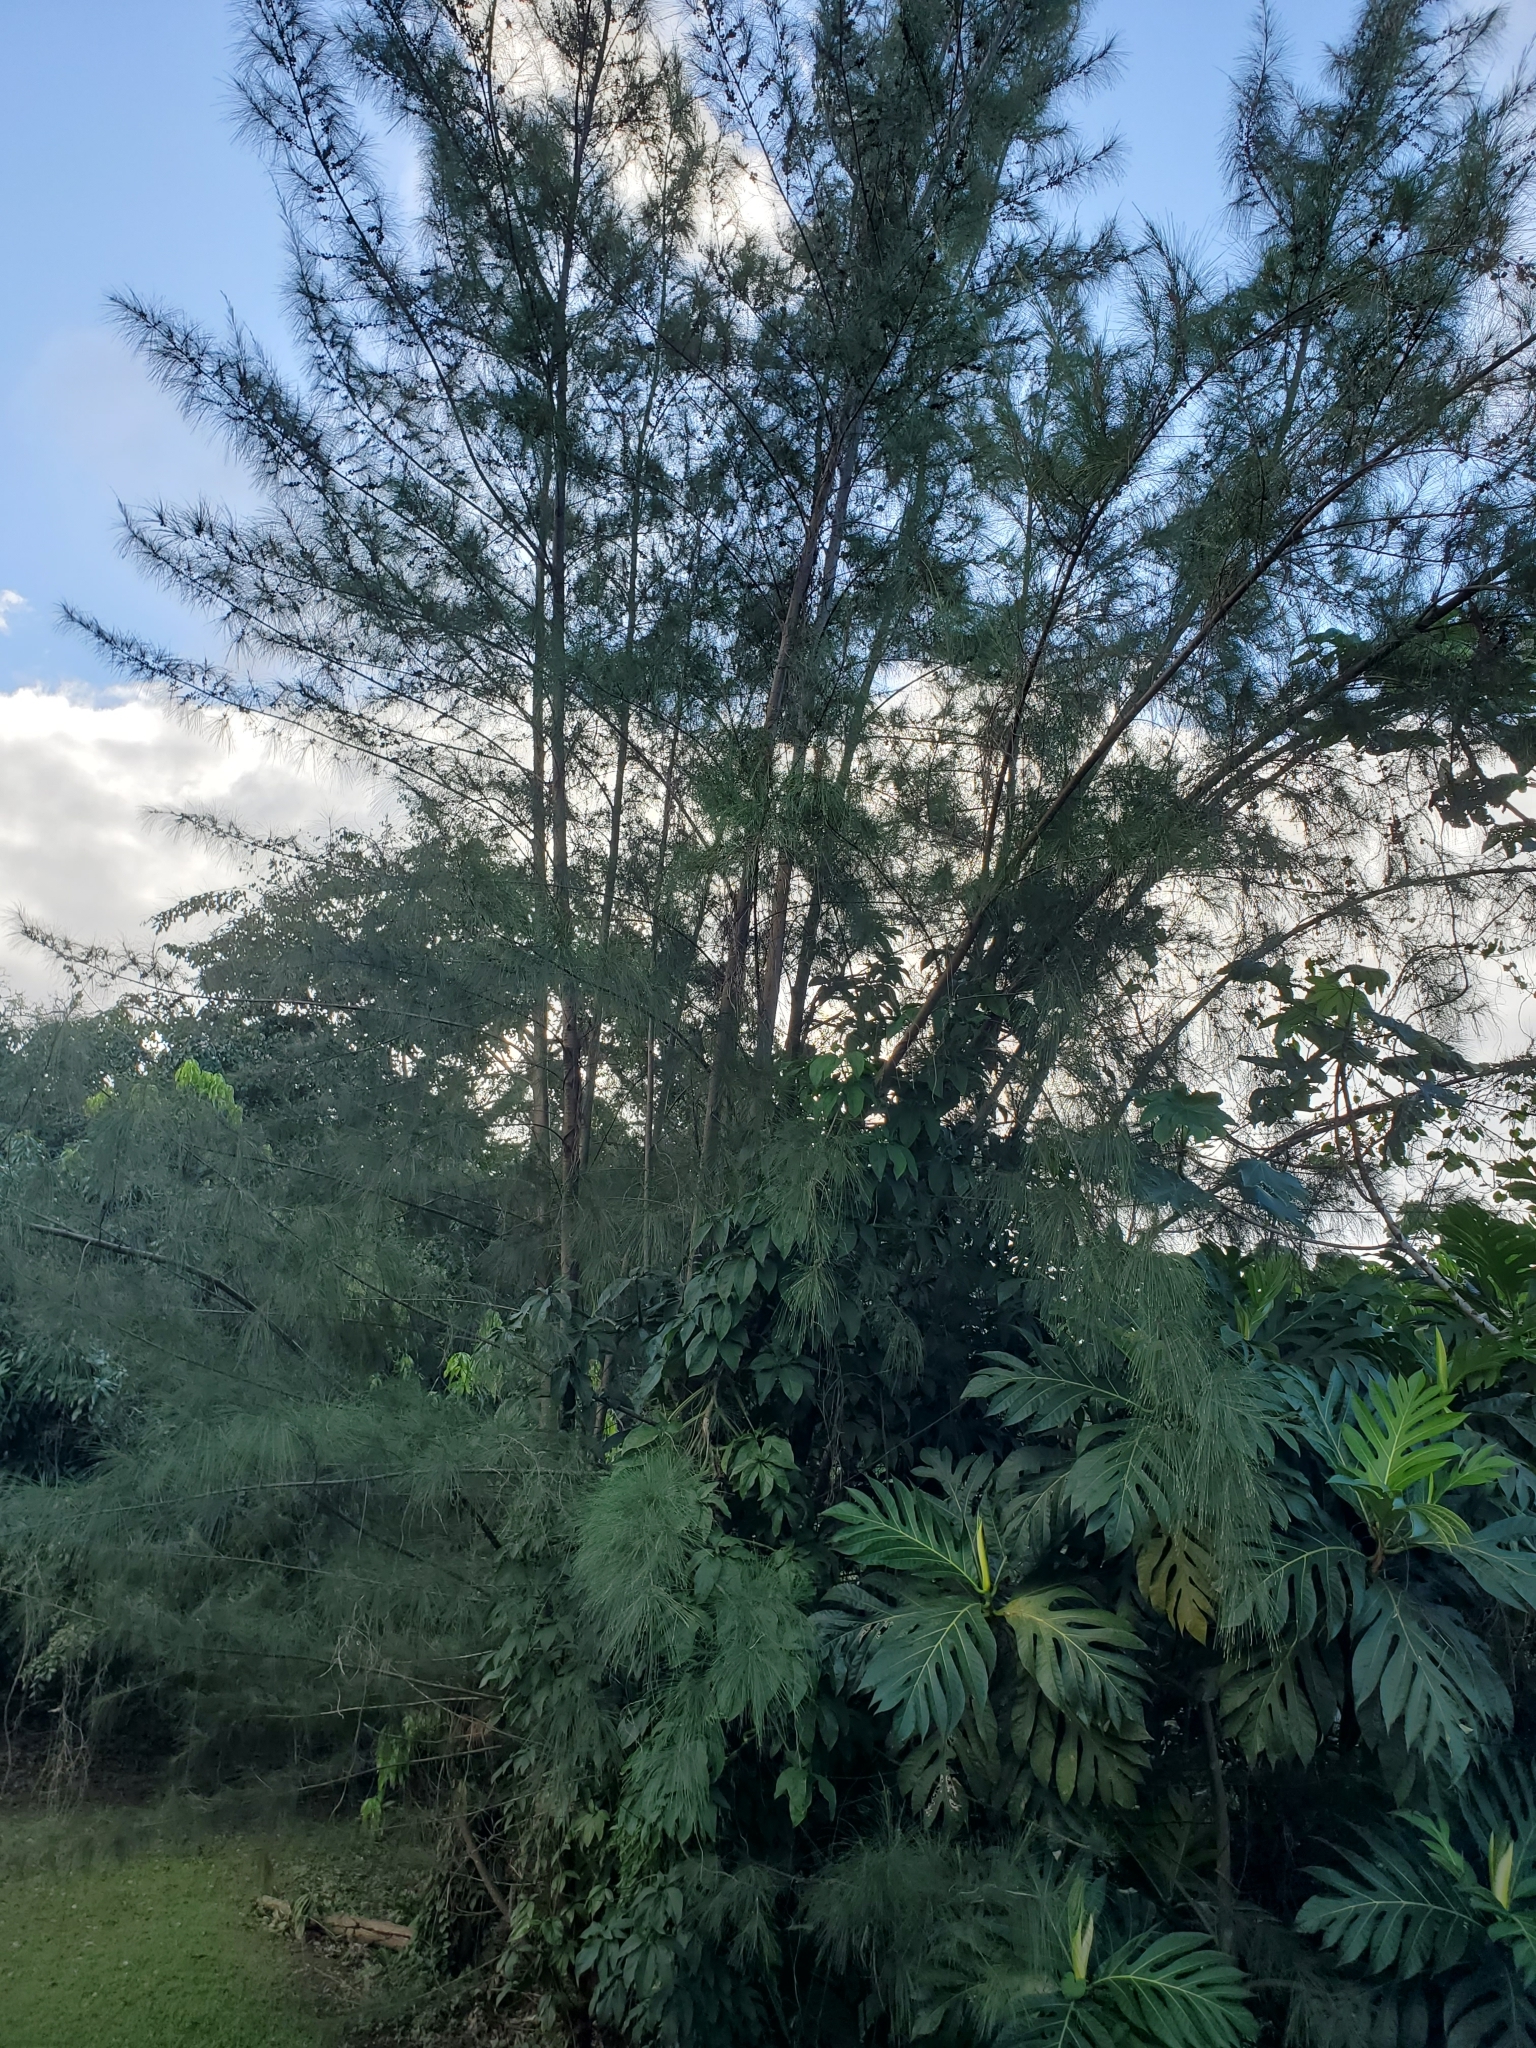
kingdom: Plantae
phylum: Tracheophyta
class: Magnoliopsida
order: Fagales
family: Casuarinaceae
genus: Casuarina
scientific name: Casuarina equisetifolia
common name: Beach sheoak
